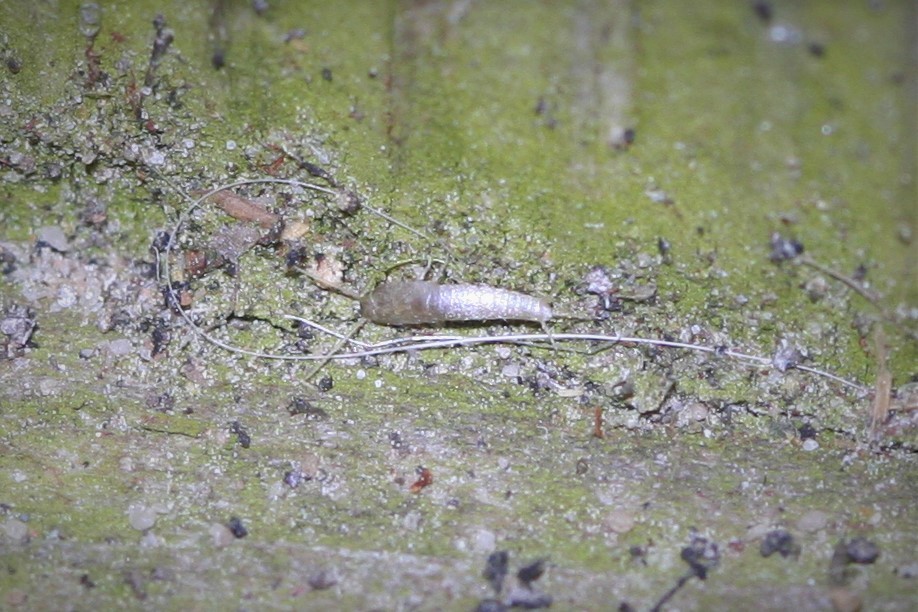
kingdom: Animalia
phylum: Arthropoda
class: Insecta
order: Zygentoma
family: Lepismatidae
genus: Lepisma
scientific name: Lepisma saccharinum
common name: Silverfish
